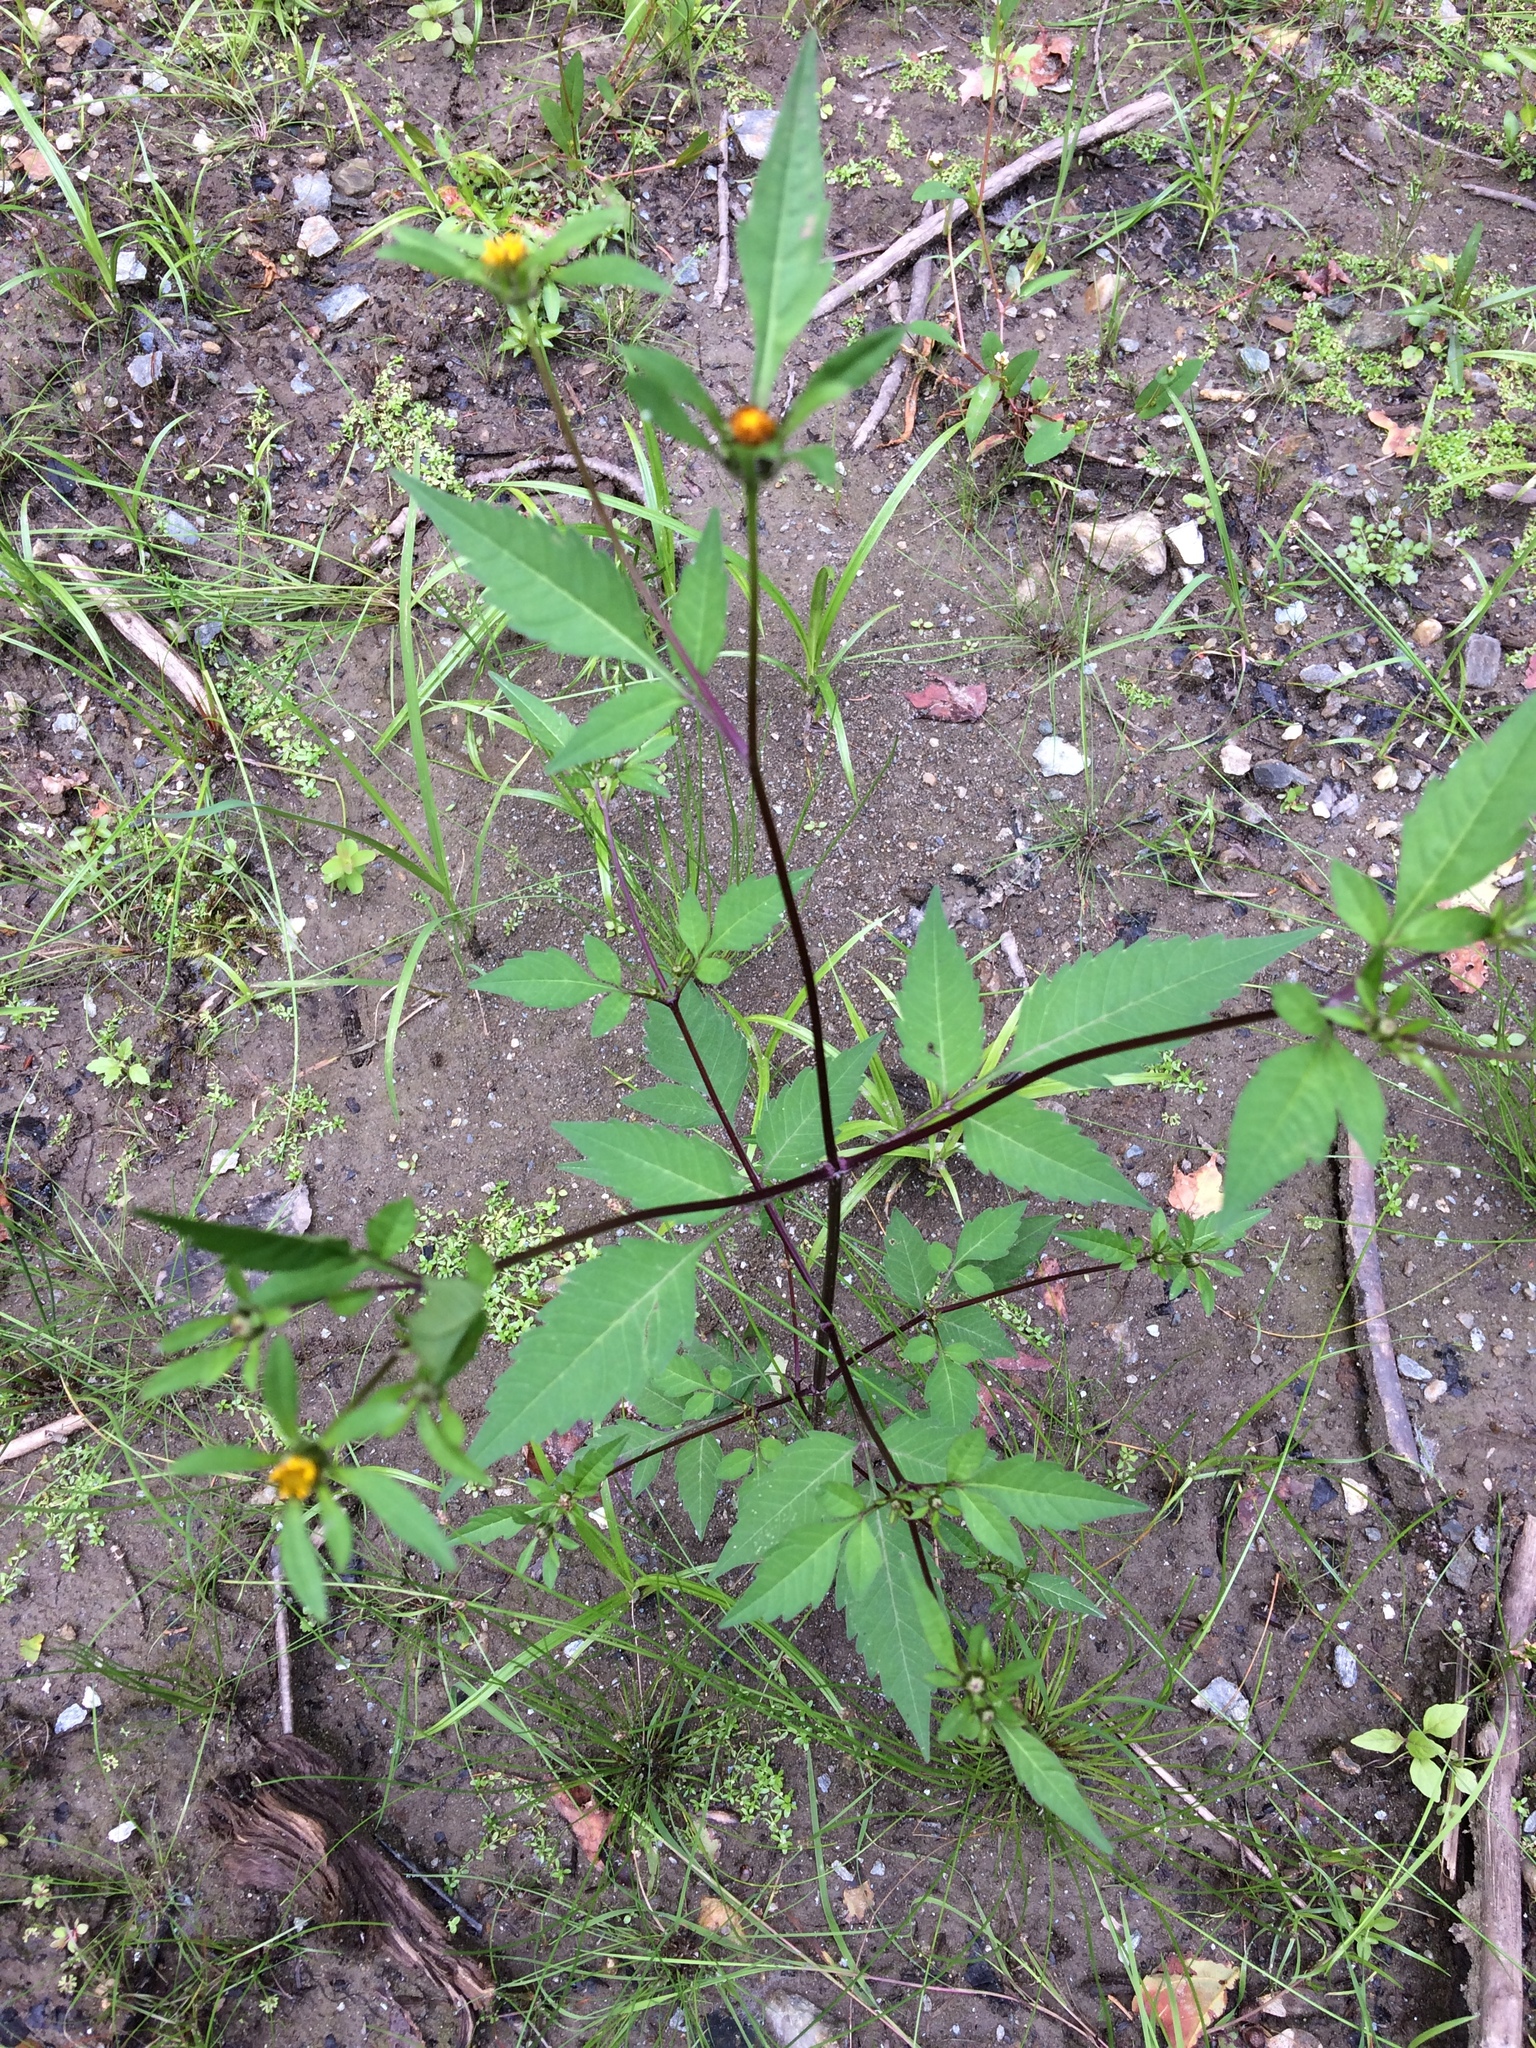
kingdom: Plantae
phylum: Tracheophyta
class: Magnoliopsida
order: Asterales
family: Asteraceae
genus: Bidens
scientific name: Bidens frondosa
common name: Beggarticks
